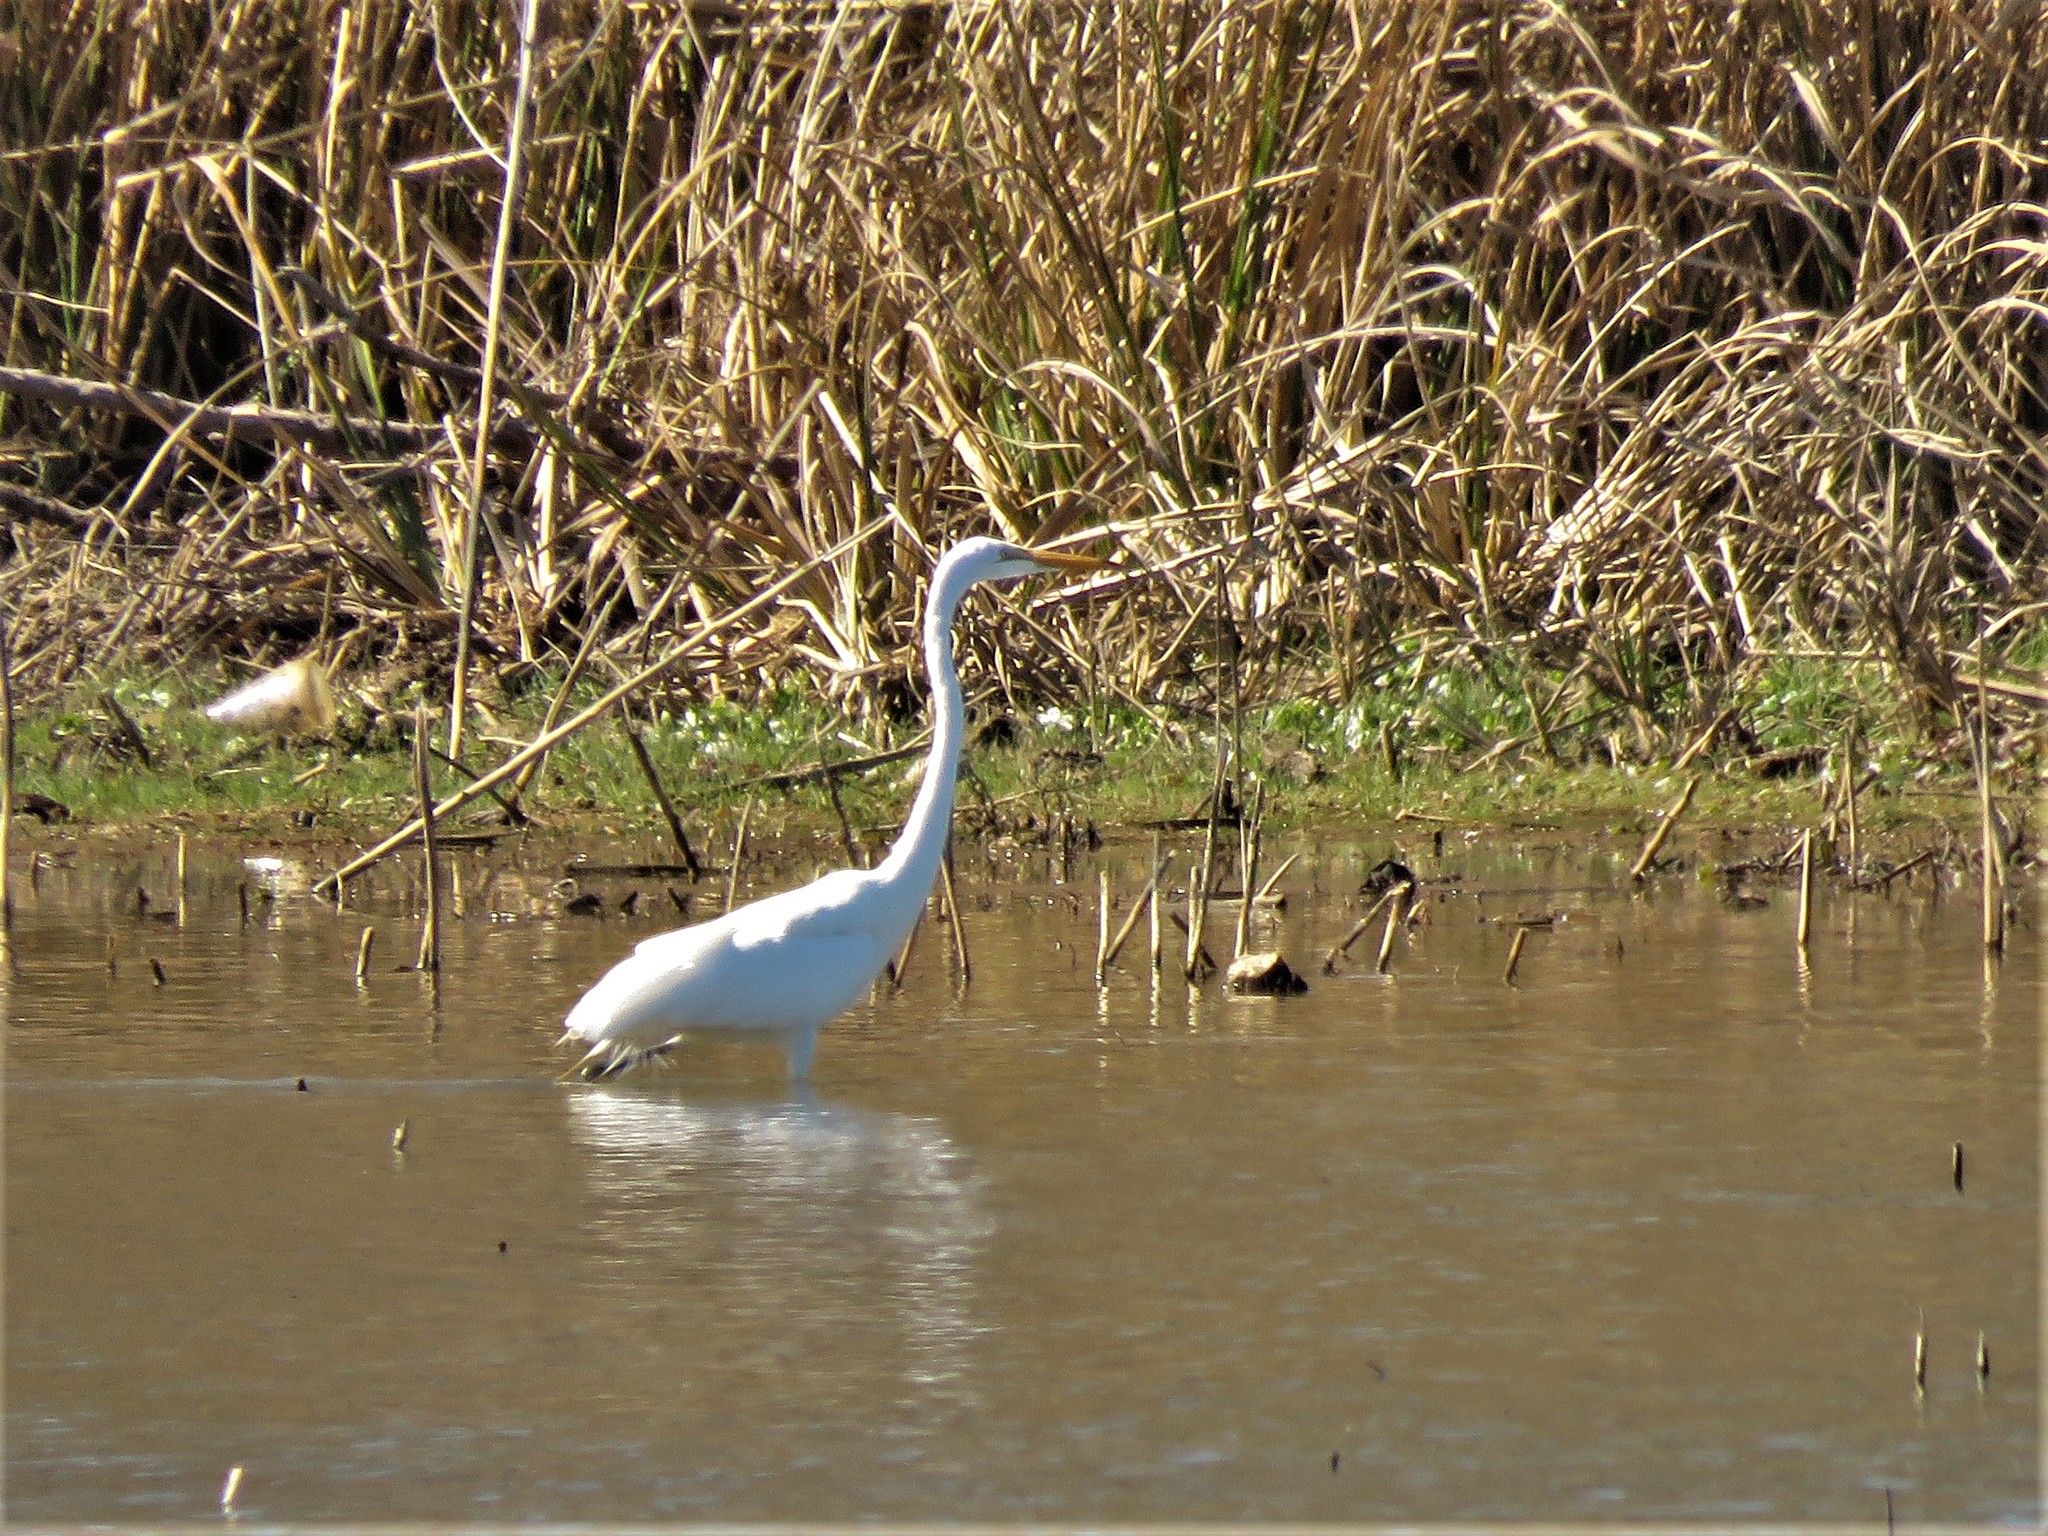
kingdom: Animalia
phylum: Chordata
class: Aves
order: Pelecaniformes
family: Ardeidae
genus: Ardea
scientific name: Ardea alba
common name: Great egret
